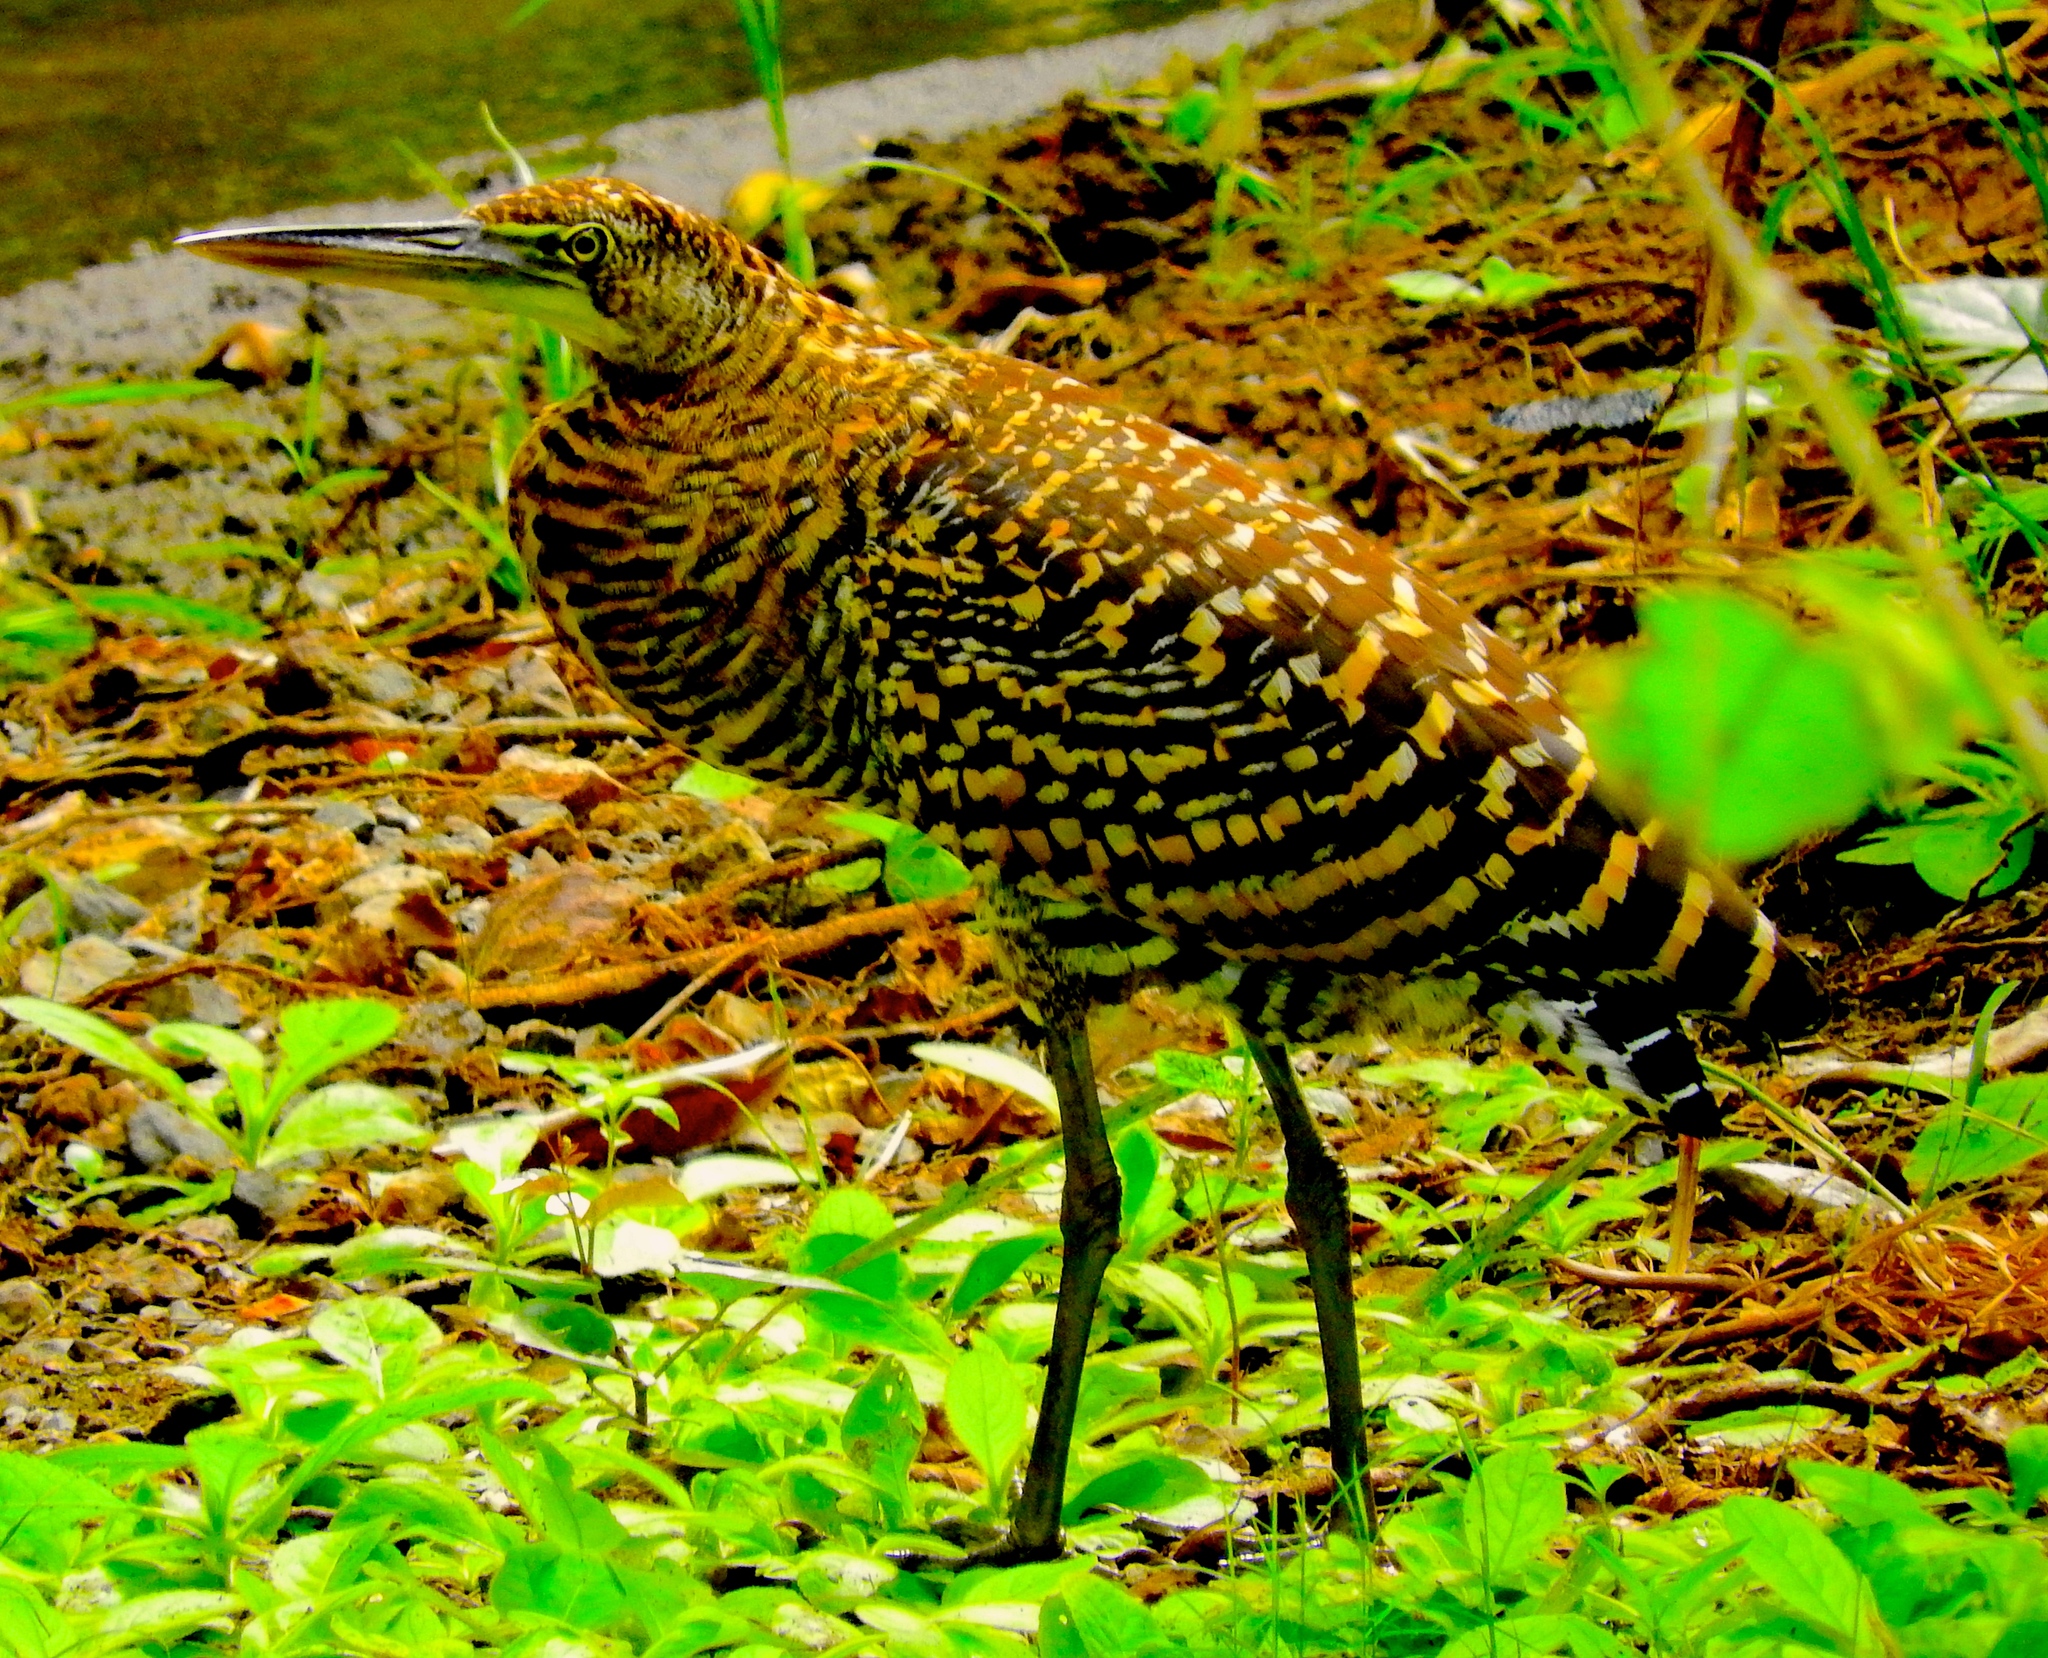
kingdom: Animalia
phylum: Chordata
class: Aves
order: Pelecaniformes
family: Ardeidae
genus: Tigrisoma
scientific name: Tigrisoma mexicanum
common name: Bare-throated tiger-heron
